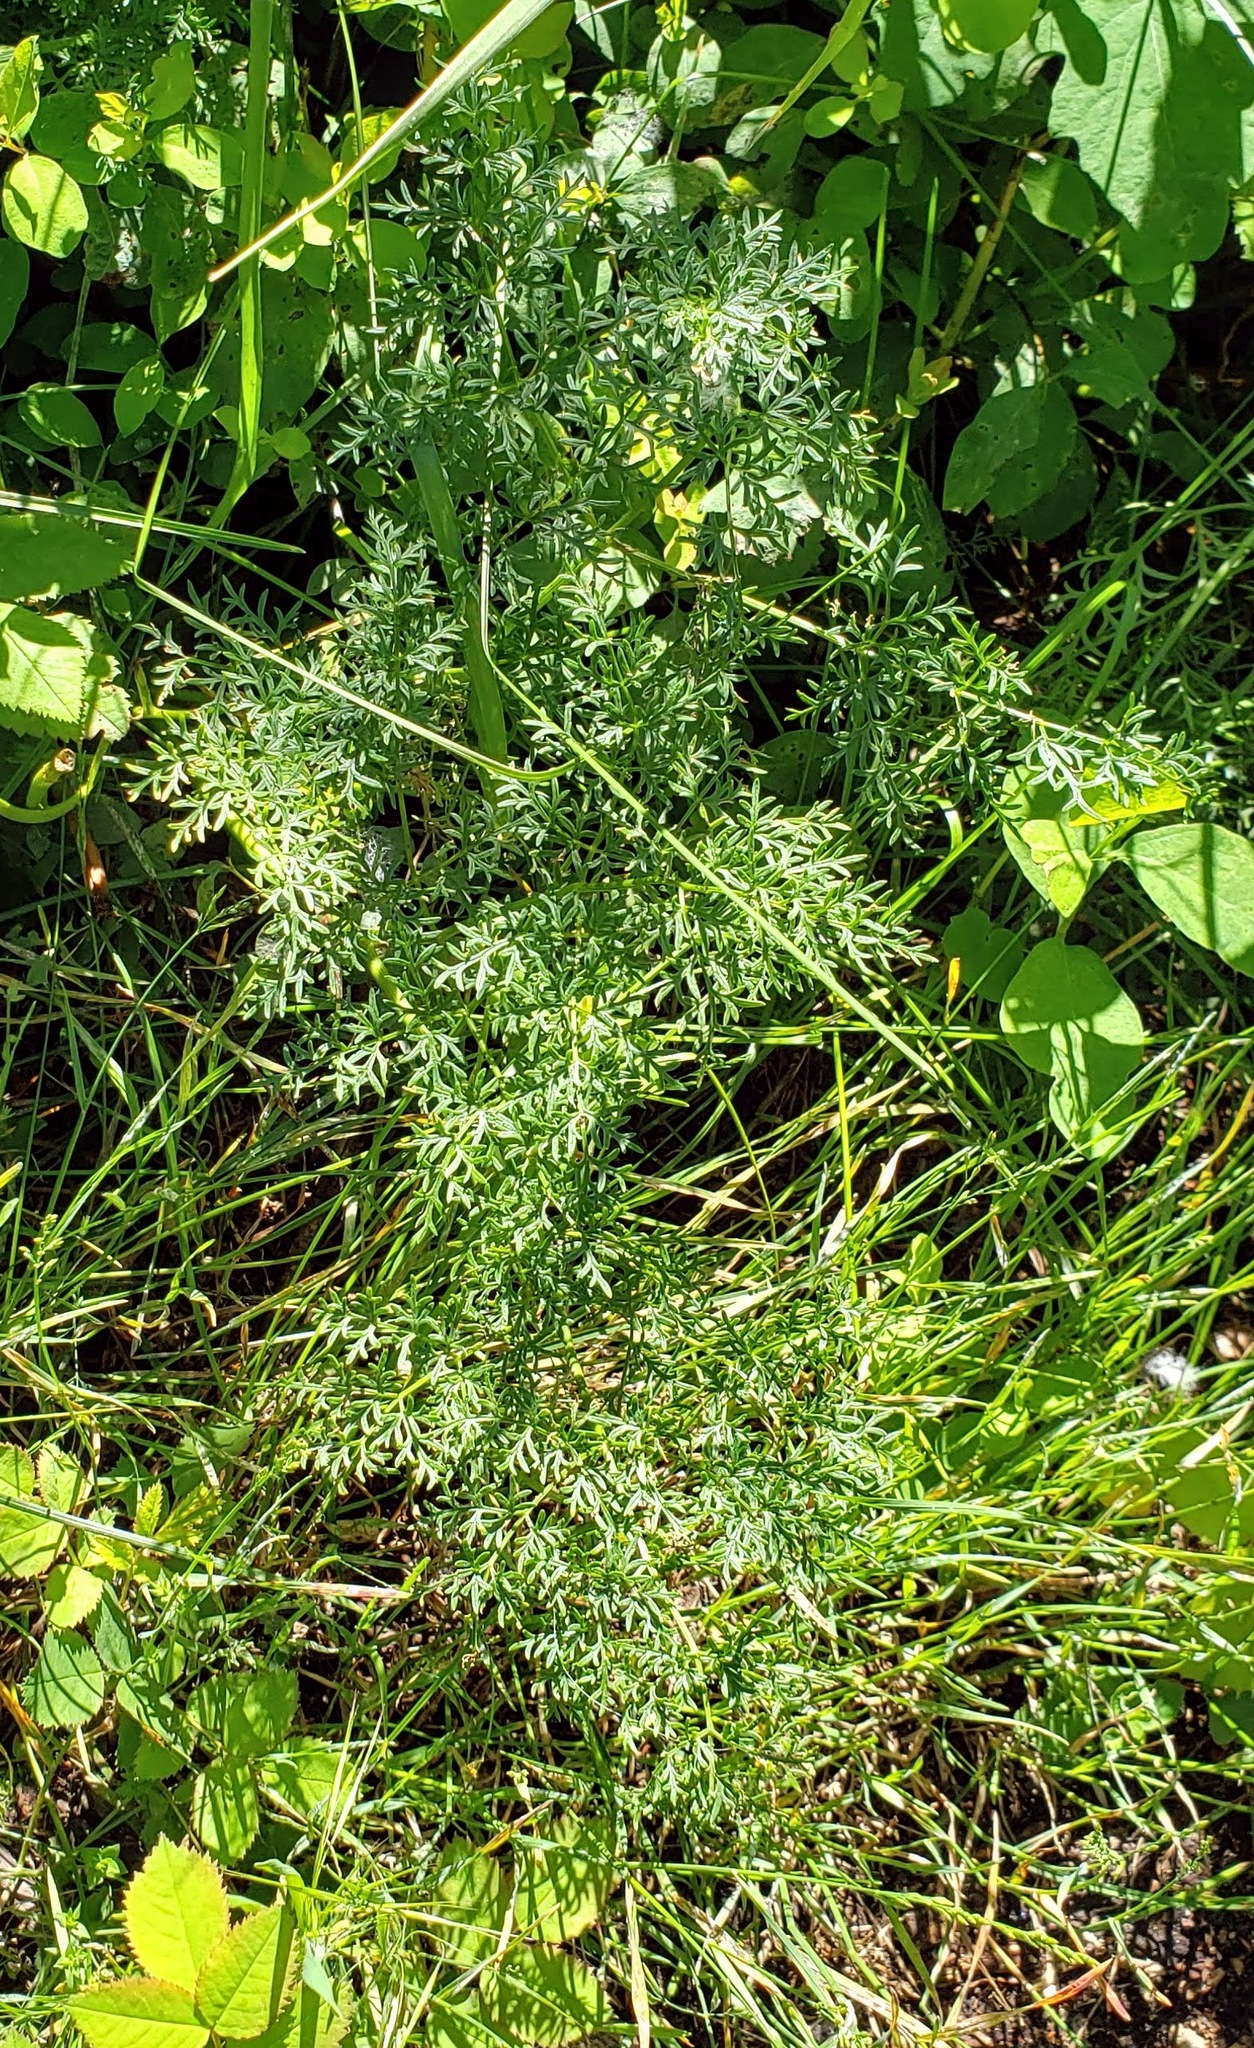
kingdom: Plantae
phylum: Tracheophyta
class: Magnoliopsida
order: Apiales
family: Apiaceae
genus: Lomatium
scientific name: Lomatium multifidum
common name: Carrot-leaved biscuitroot
